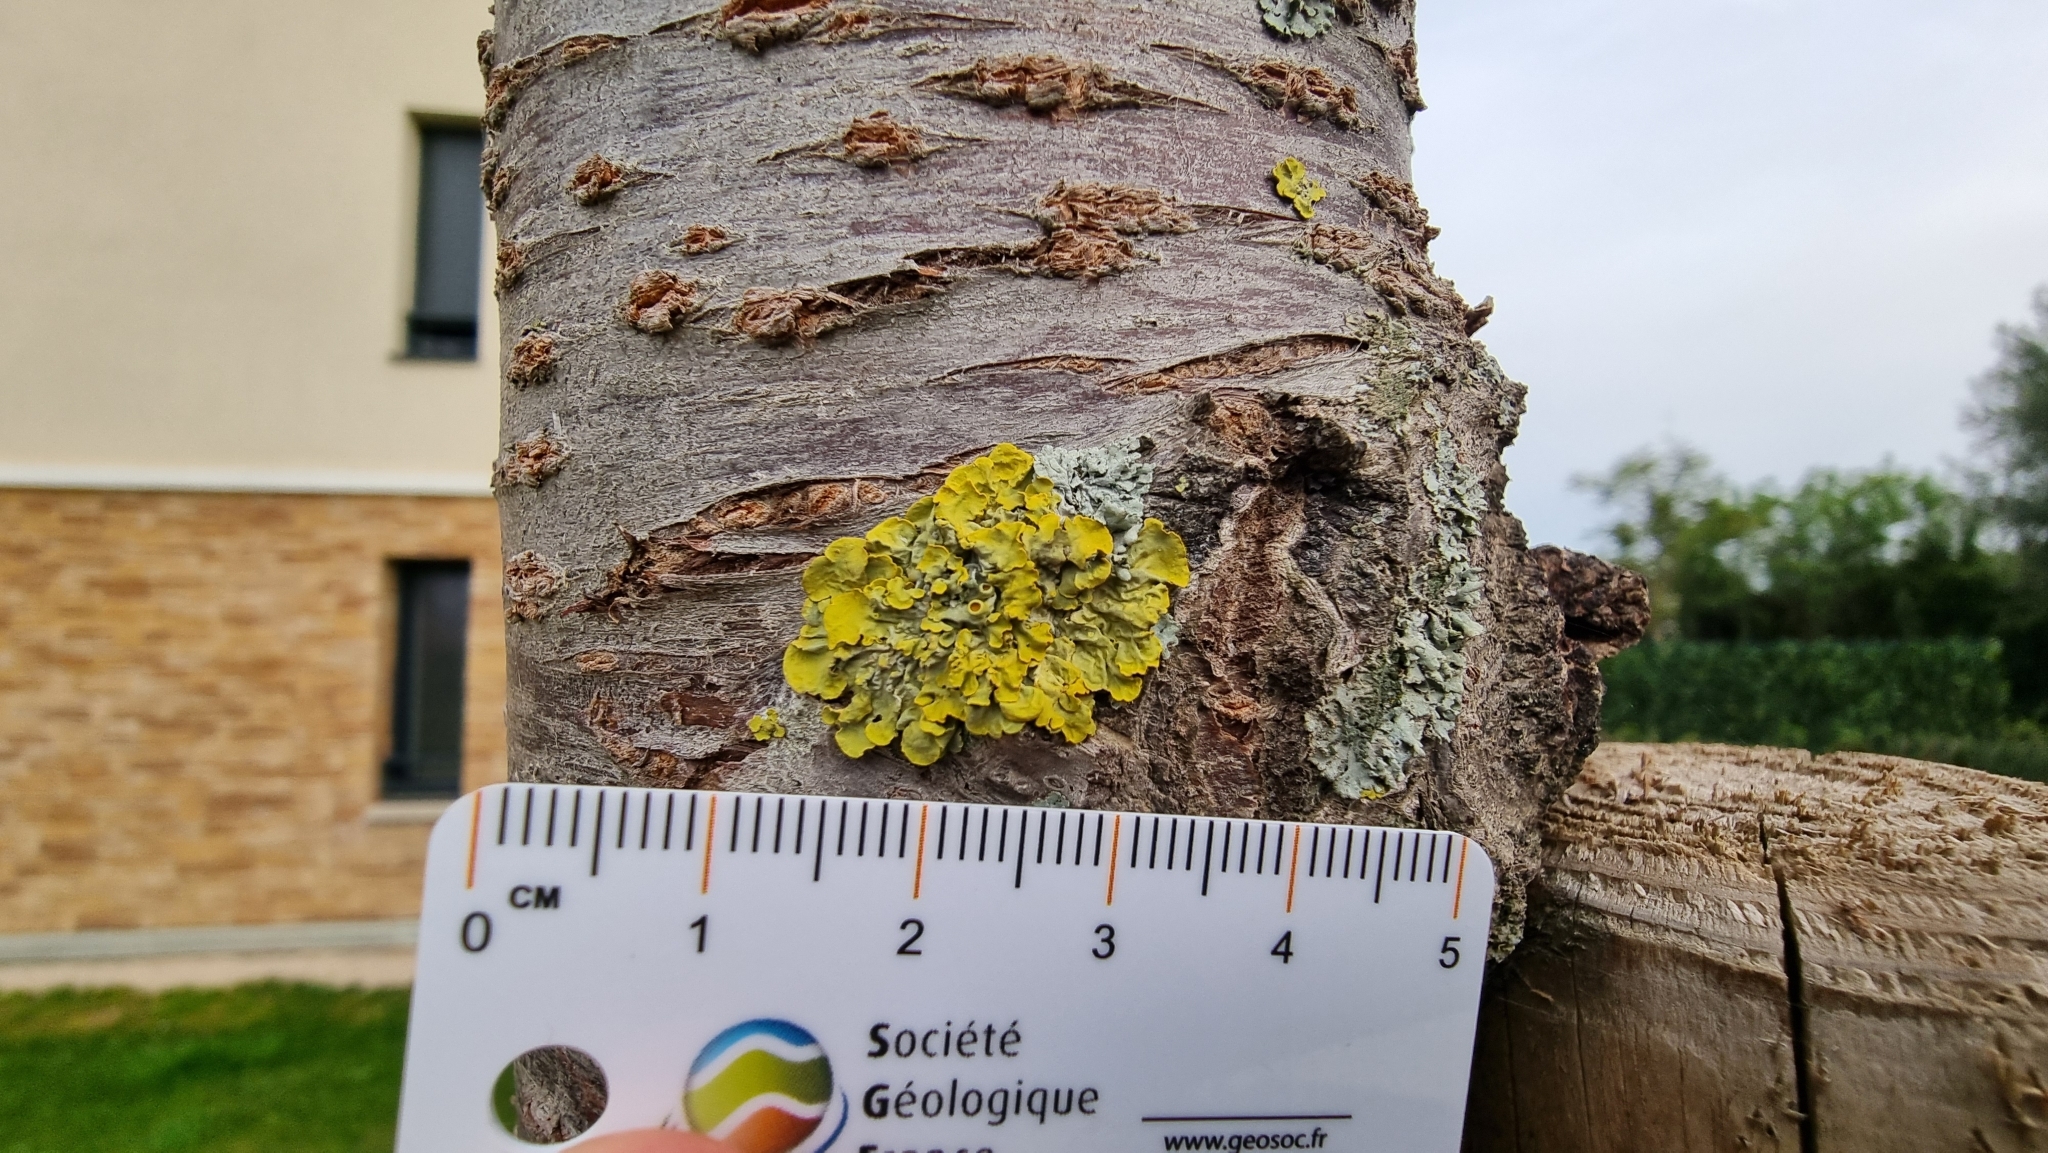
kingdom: Fungi
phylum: Ascomycota
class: Lecanoromycetes
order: Teloschistales
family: Teloschistaceae
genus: Xanthoria
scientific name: Xanthoria parietina
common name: Common orange lichen
